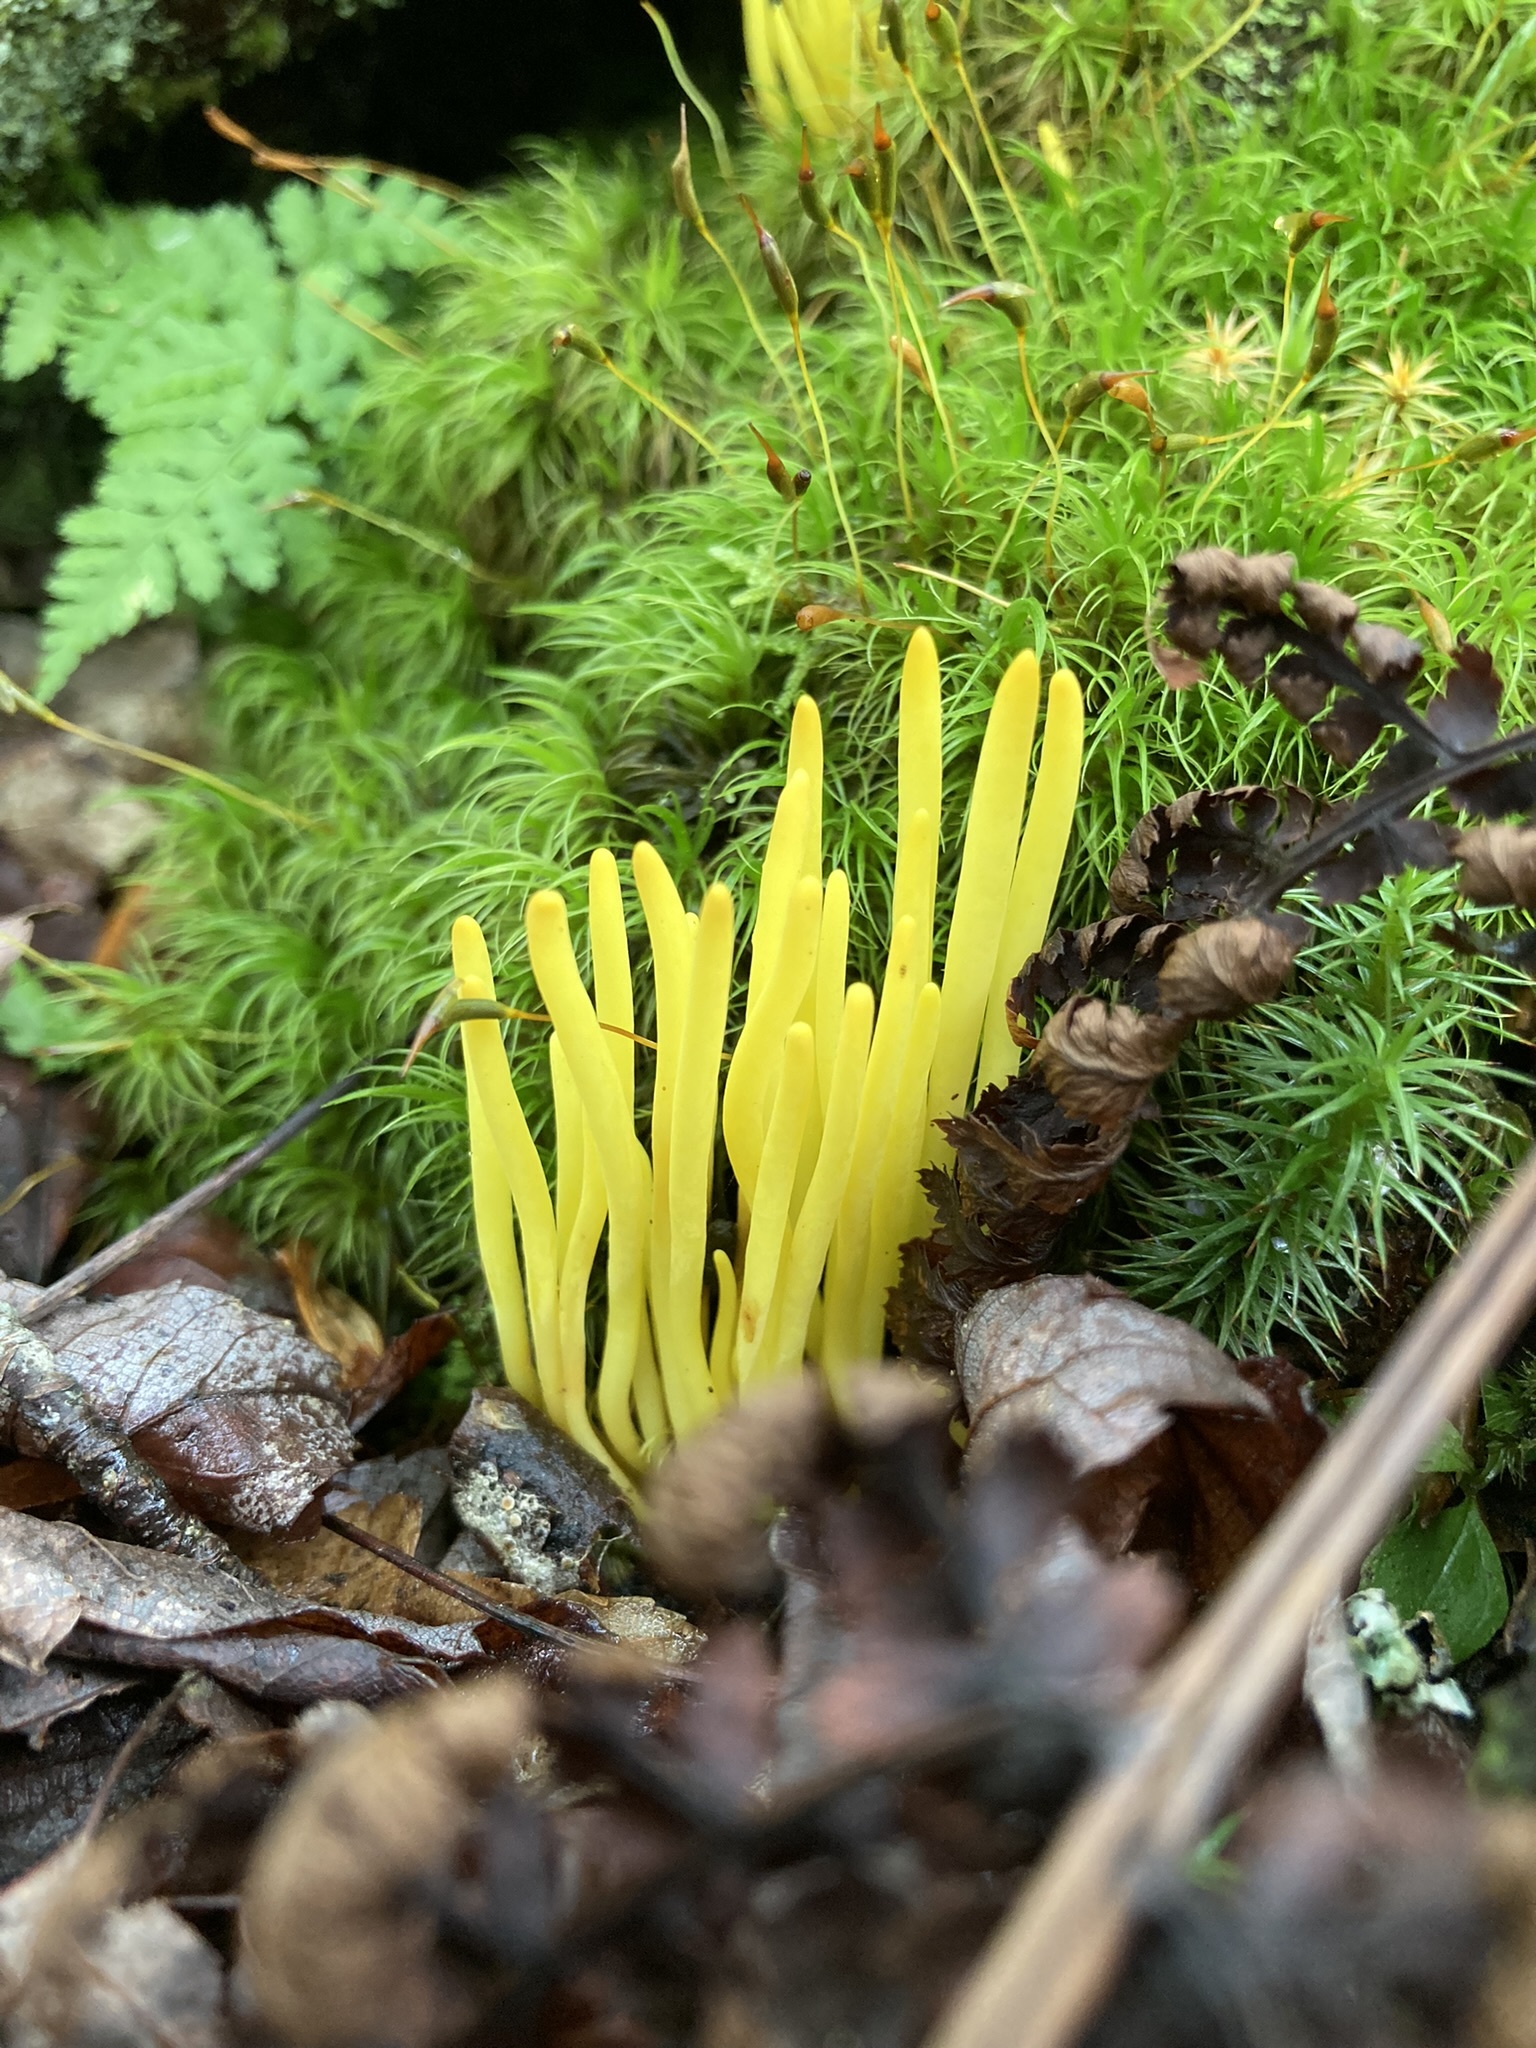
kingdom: Fungi
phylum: Basidiomycota
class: Agaricomycetes
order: Agaricales
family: Clavariaceae
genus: Clavulinopsis
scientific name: Clavulinopsis fusiformis
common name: Golden spindles
